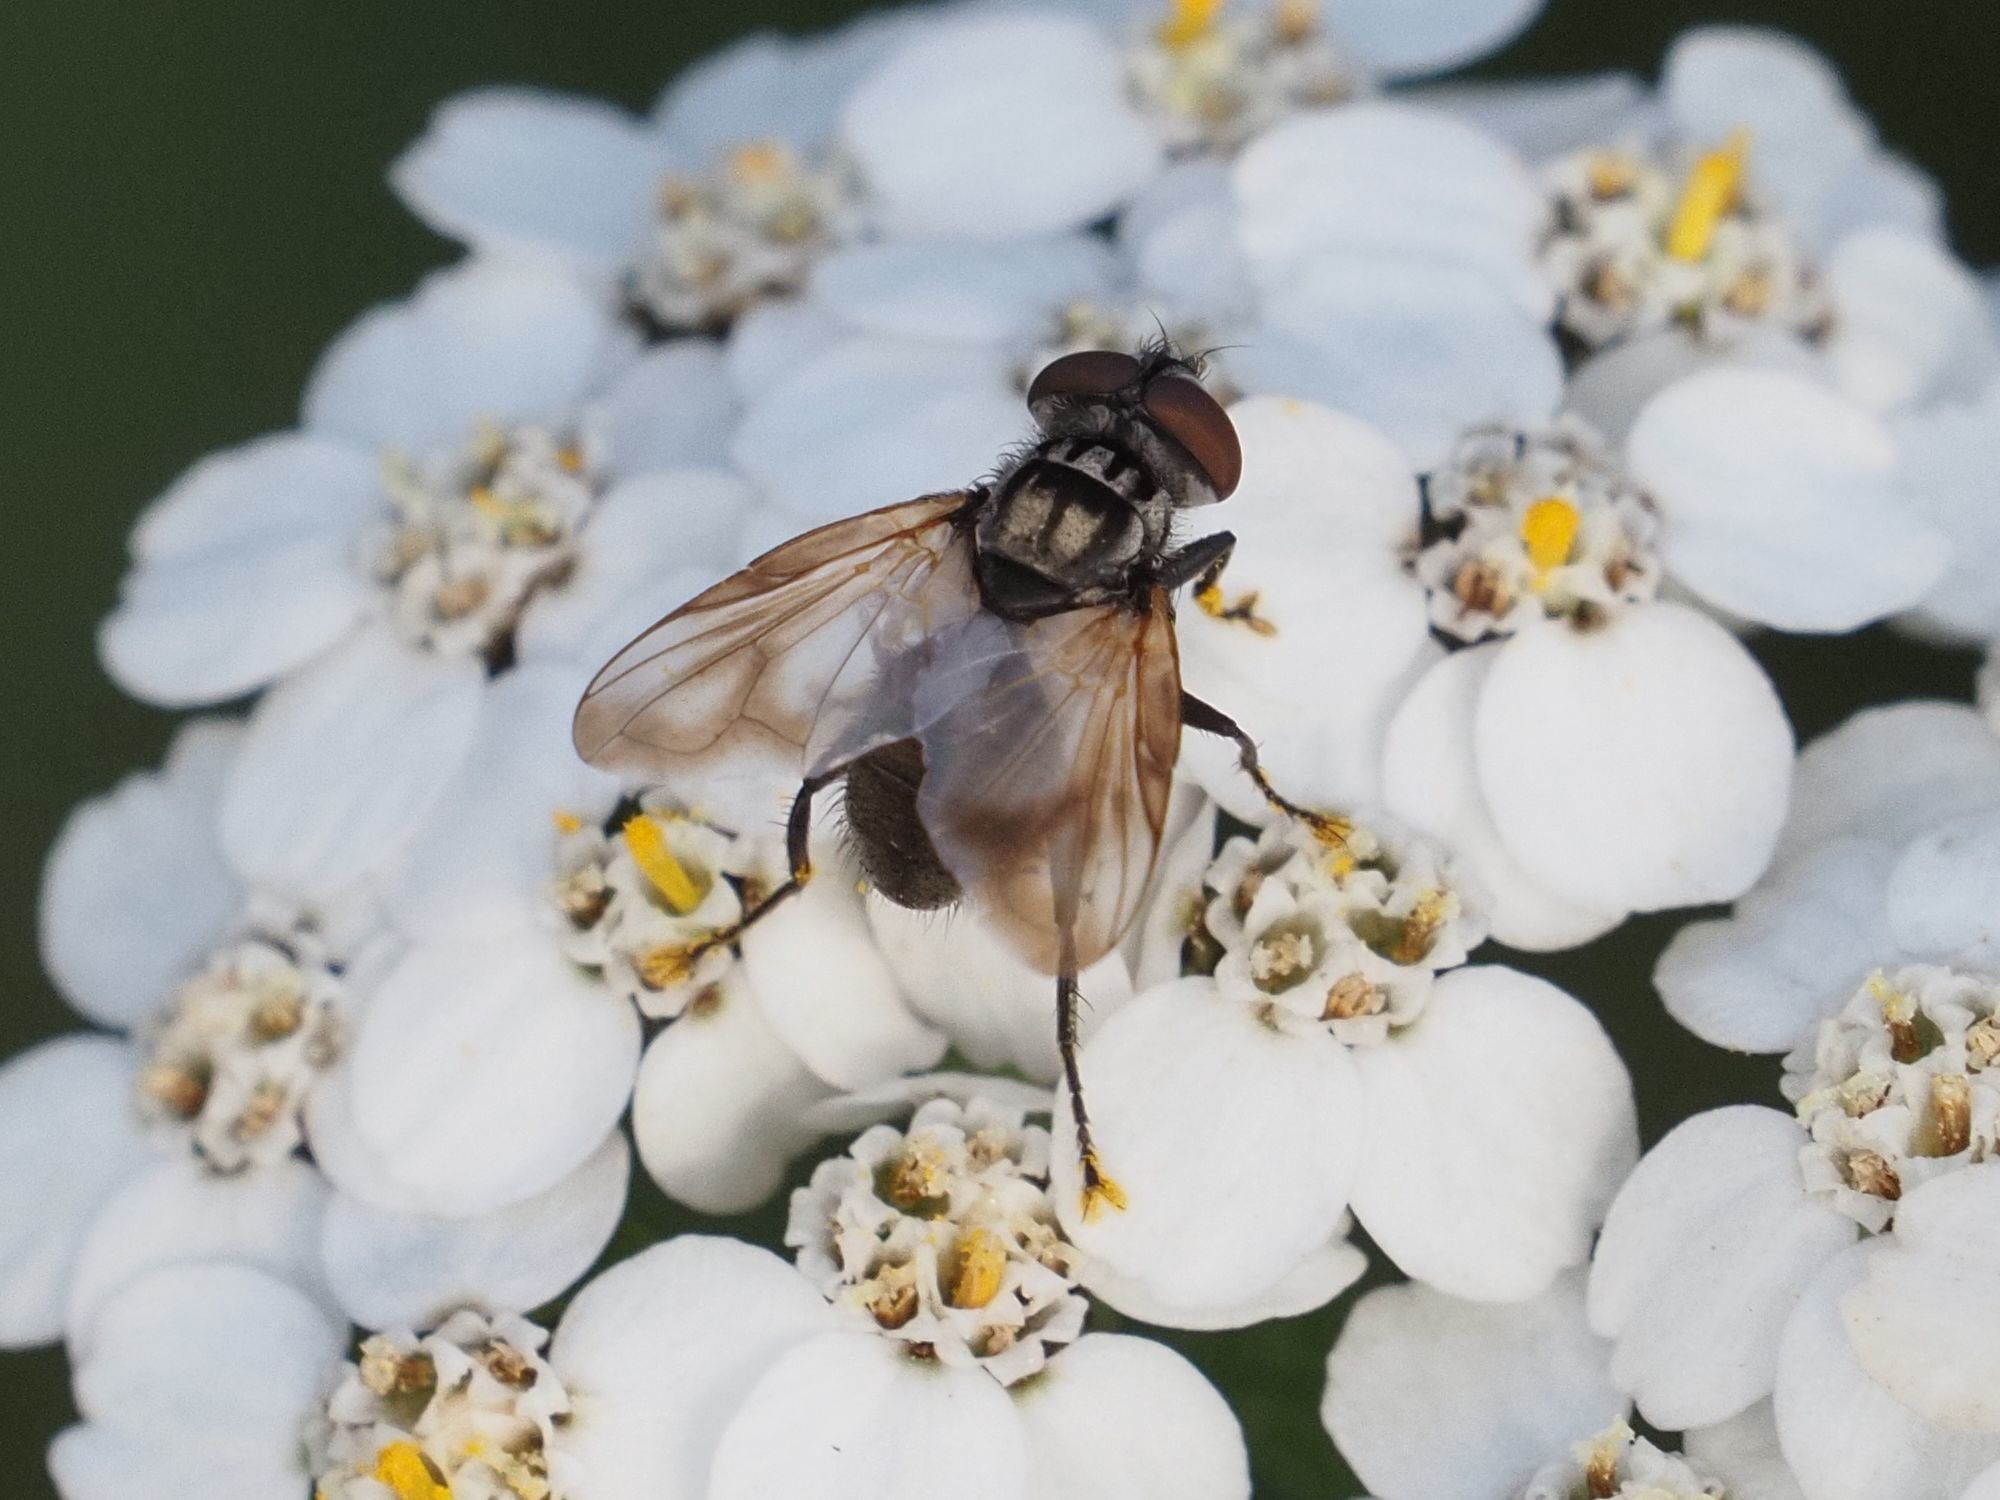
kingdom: Animalia
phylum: Arthropoda
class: Insecta
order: Diptera
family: Tachinidae
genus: Phasia
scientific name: Phasia obesa
